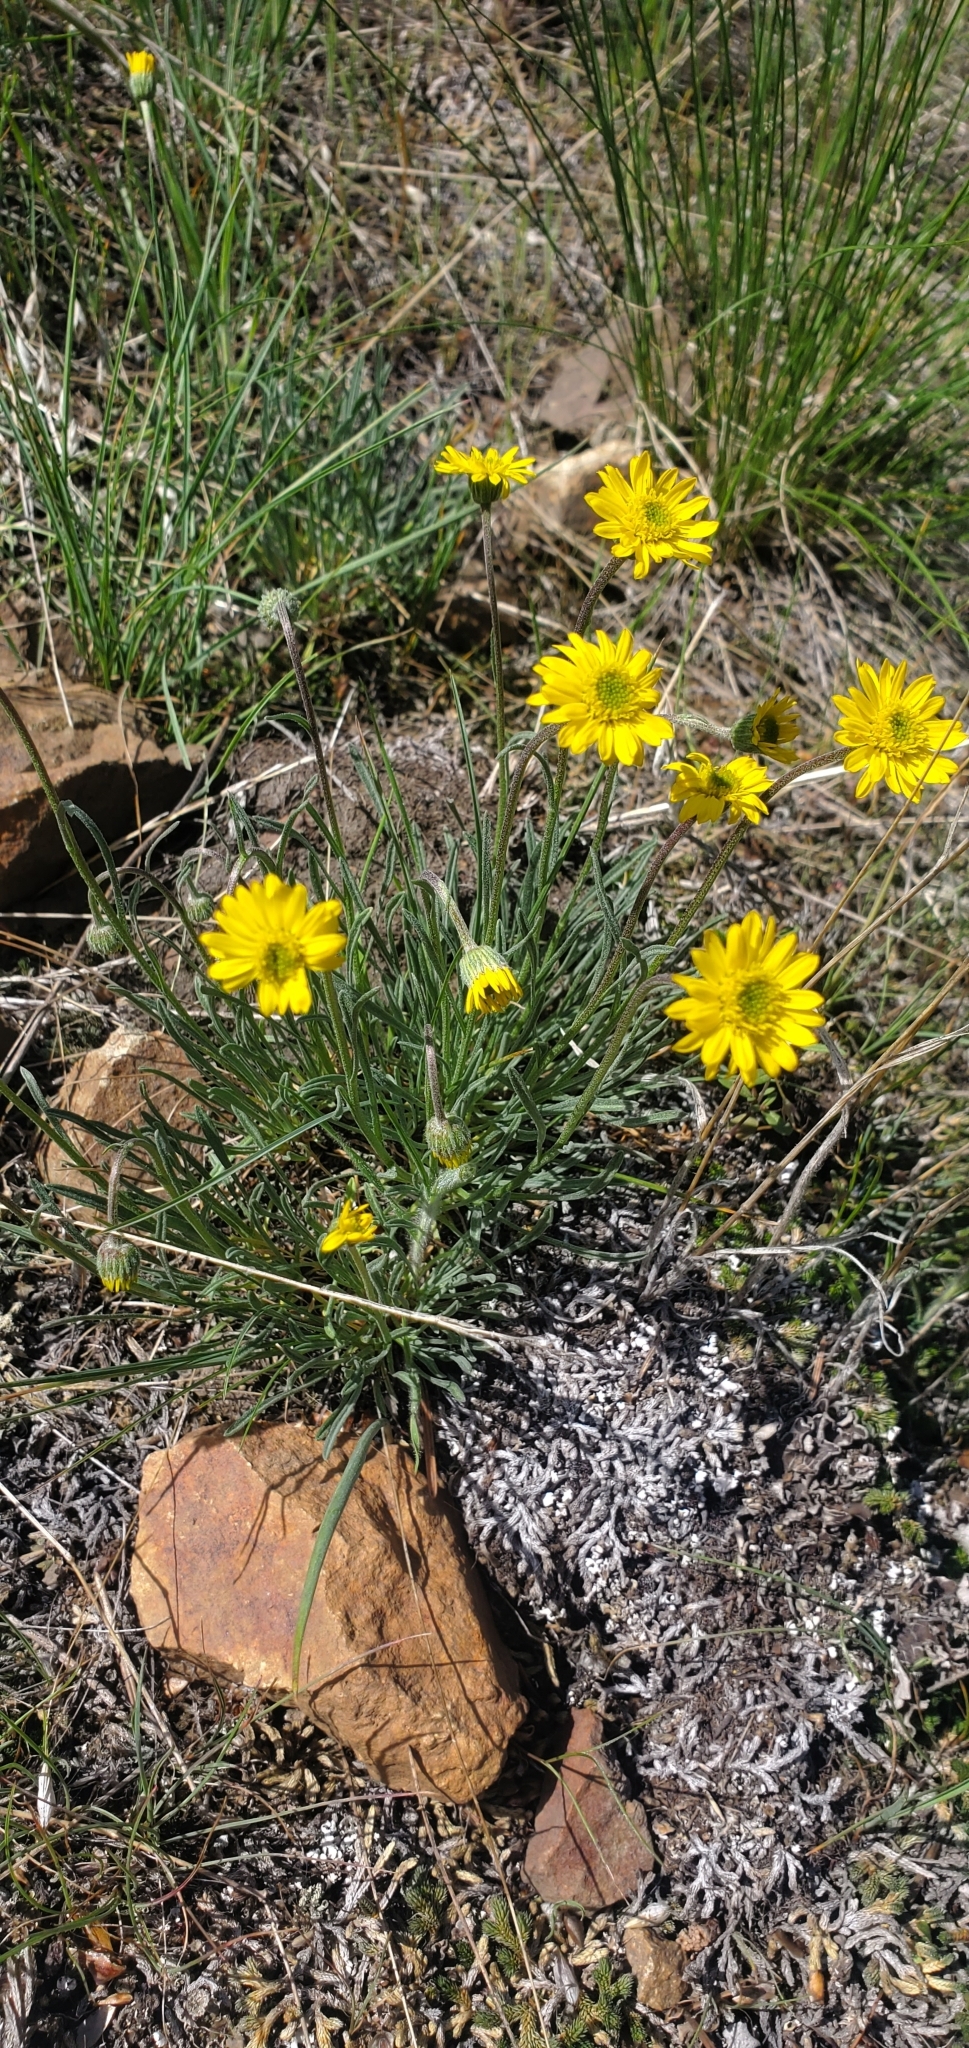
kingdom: Plantae
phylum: Tracheophyta
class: Magnoliopsida
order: Asterales
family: Asteraceae
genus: Erigeron
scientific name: Erigeron linearis
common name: Desert yellow fleabane
